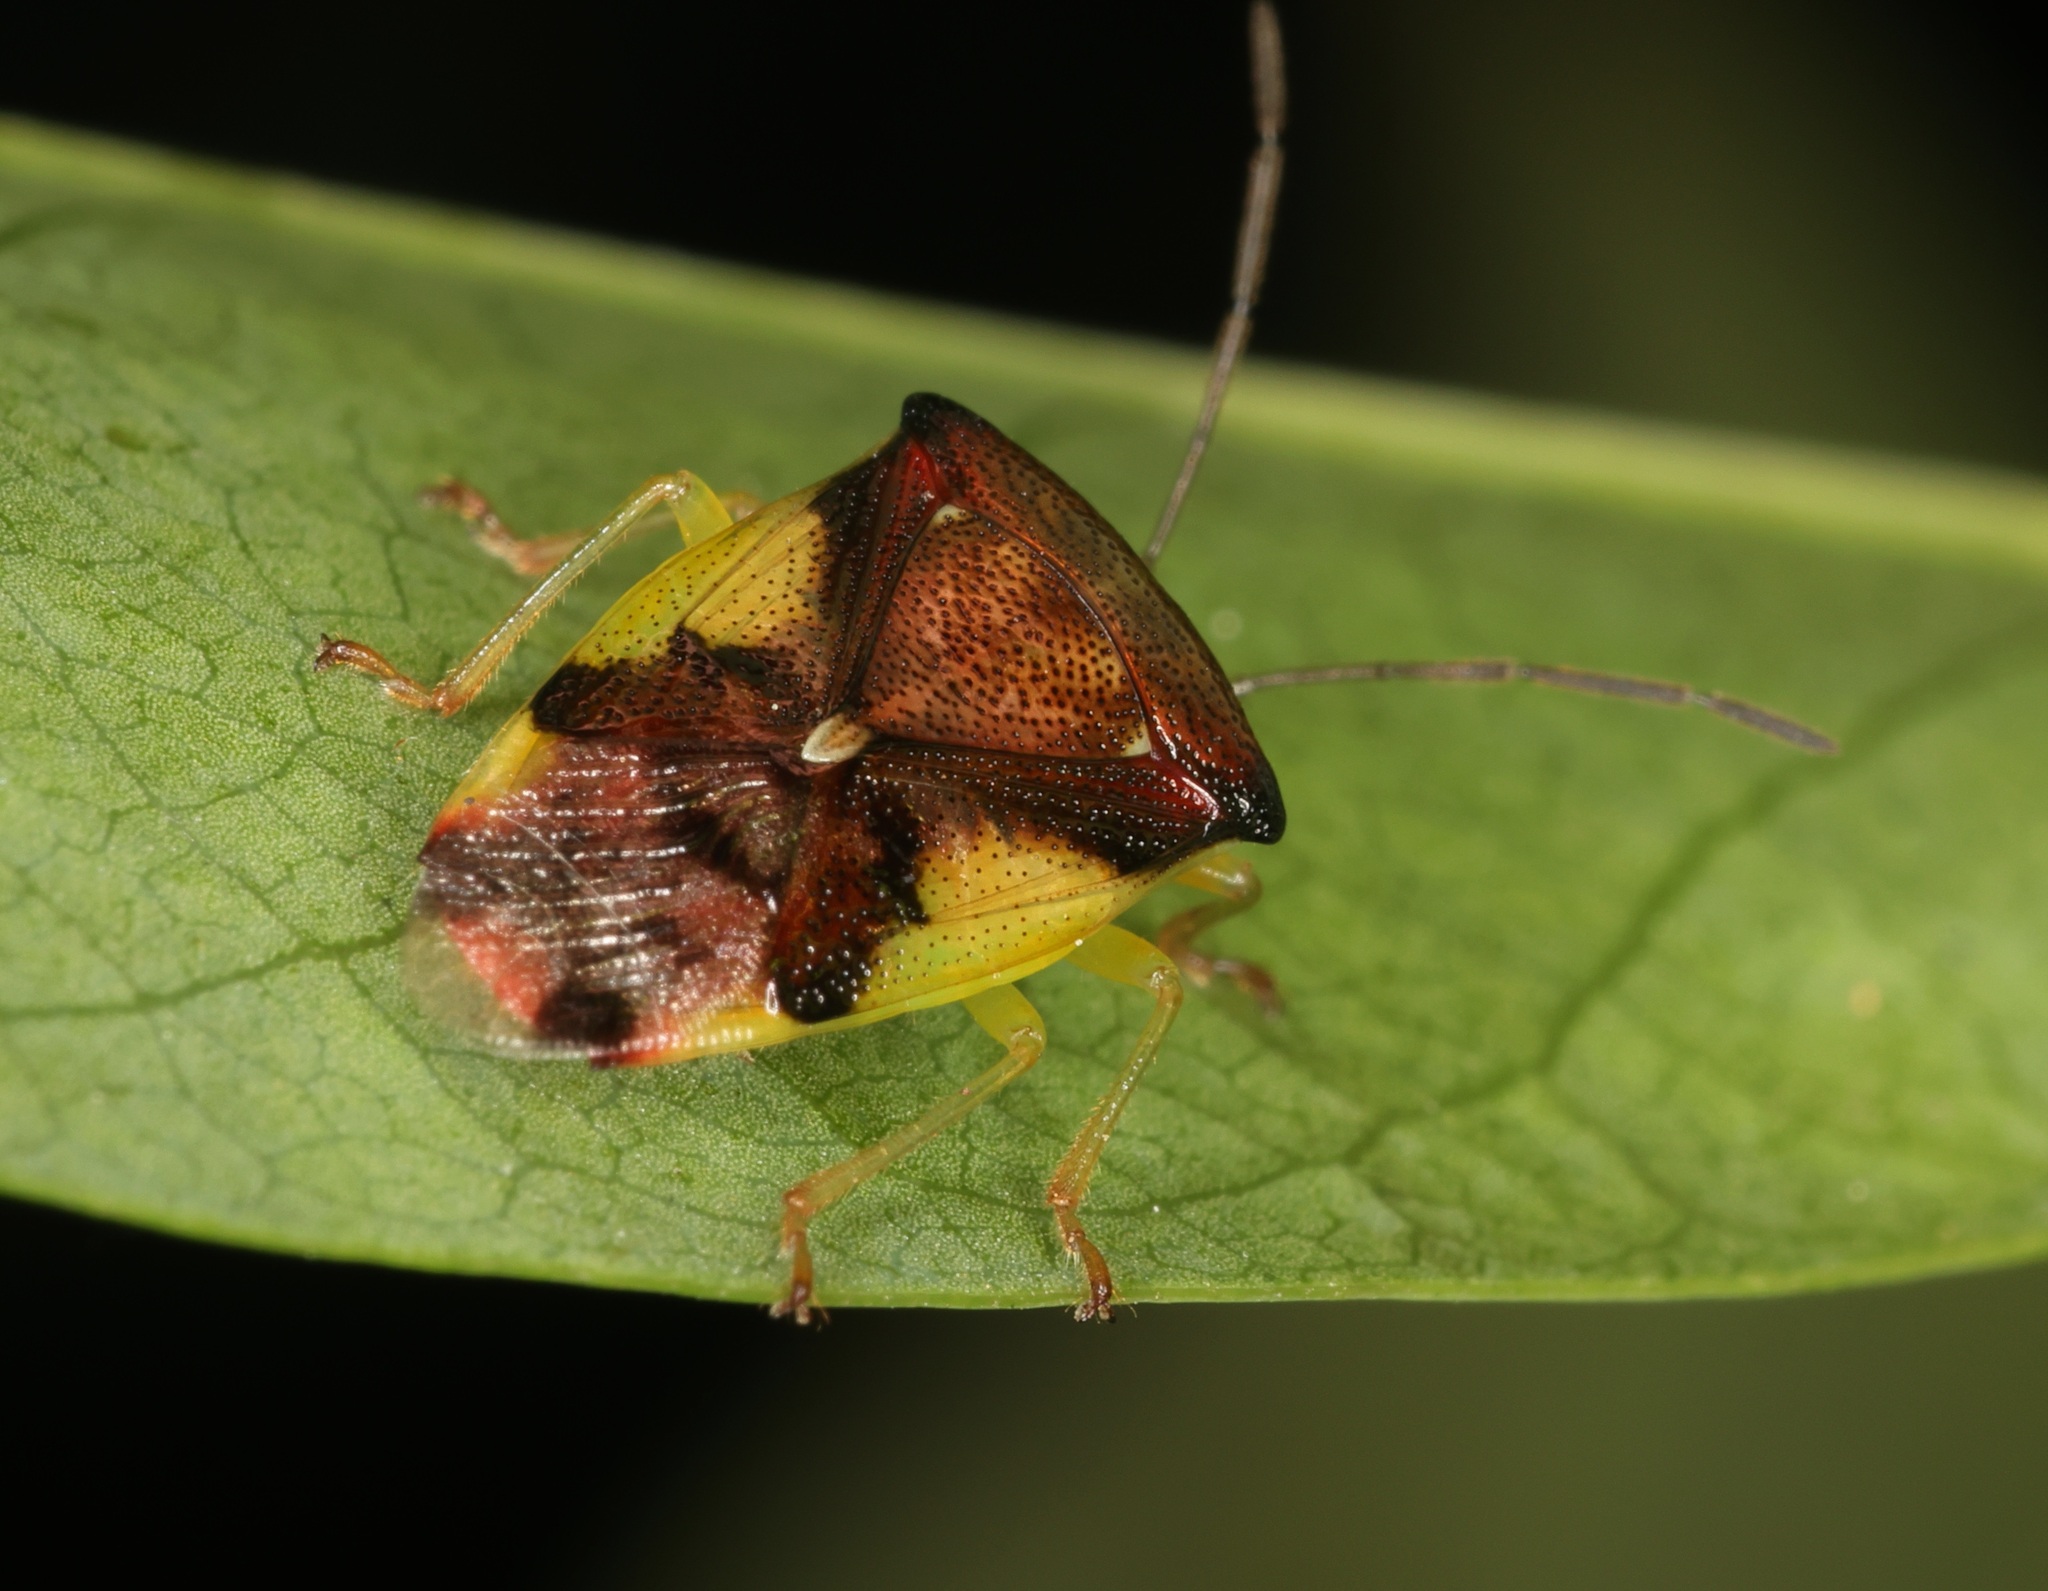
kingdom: Animalia
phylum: Arthropoda
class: Insecta
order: Hemiptera
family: Acanthosomatidae
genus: Elasmostethus
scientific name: Elasmostethus nubilus
